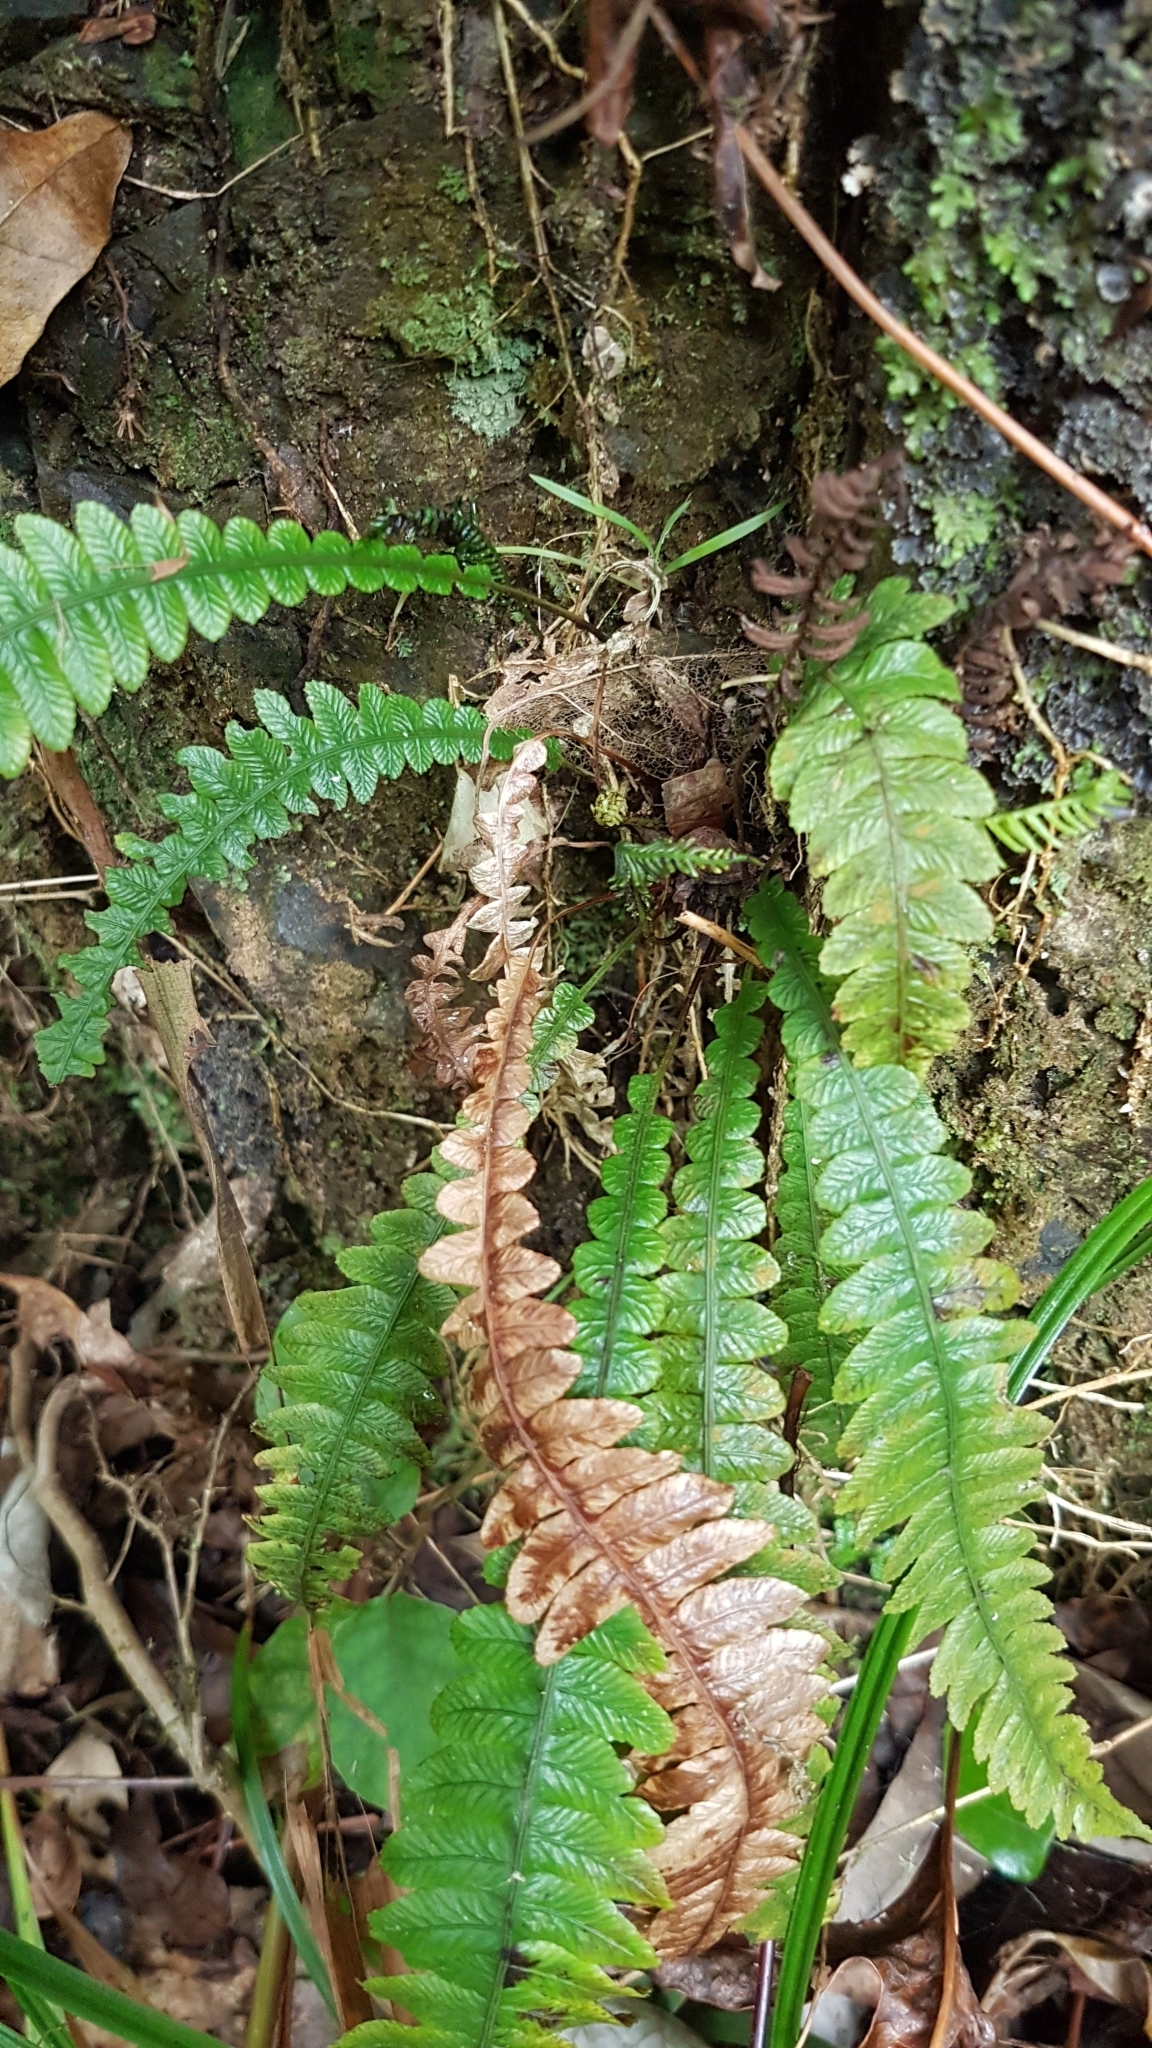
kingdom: Plantae
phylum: Tracheophyta
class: Polypodiopsida
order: Polypodiales
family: Blechnaceae
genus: Austroblechnum
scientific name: Austroblechnum lanceolatum
